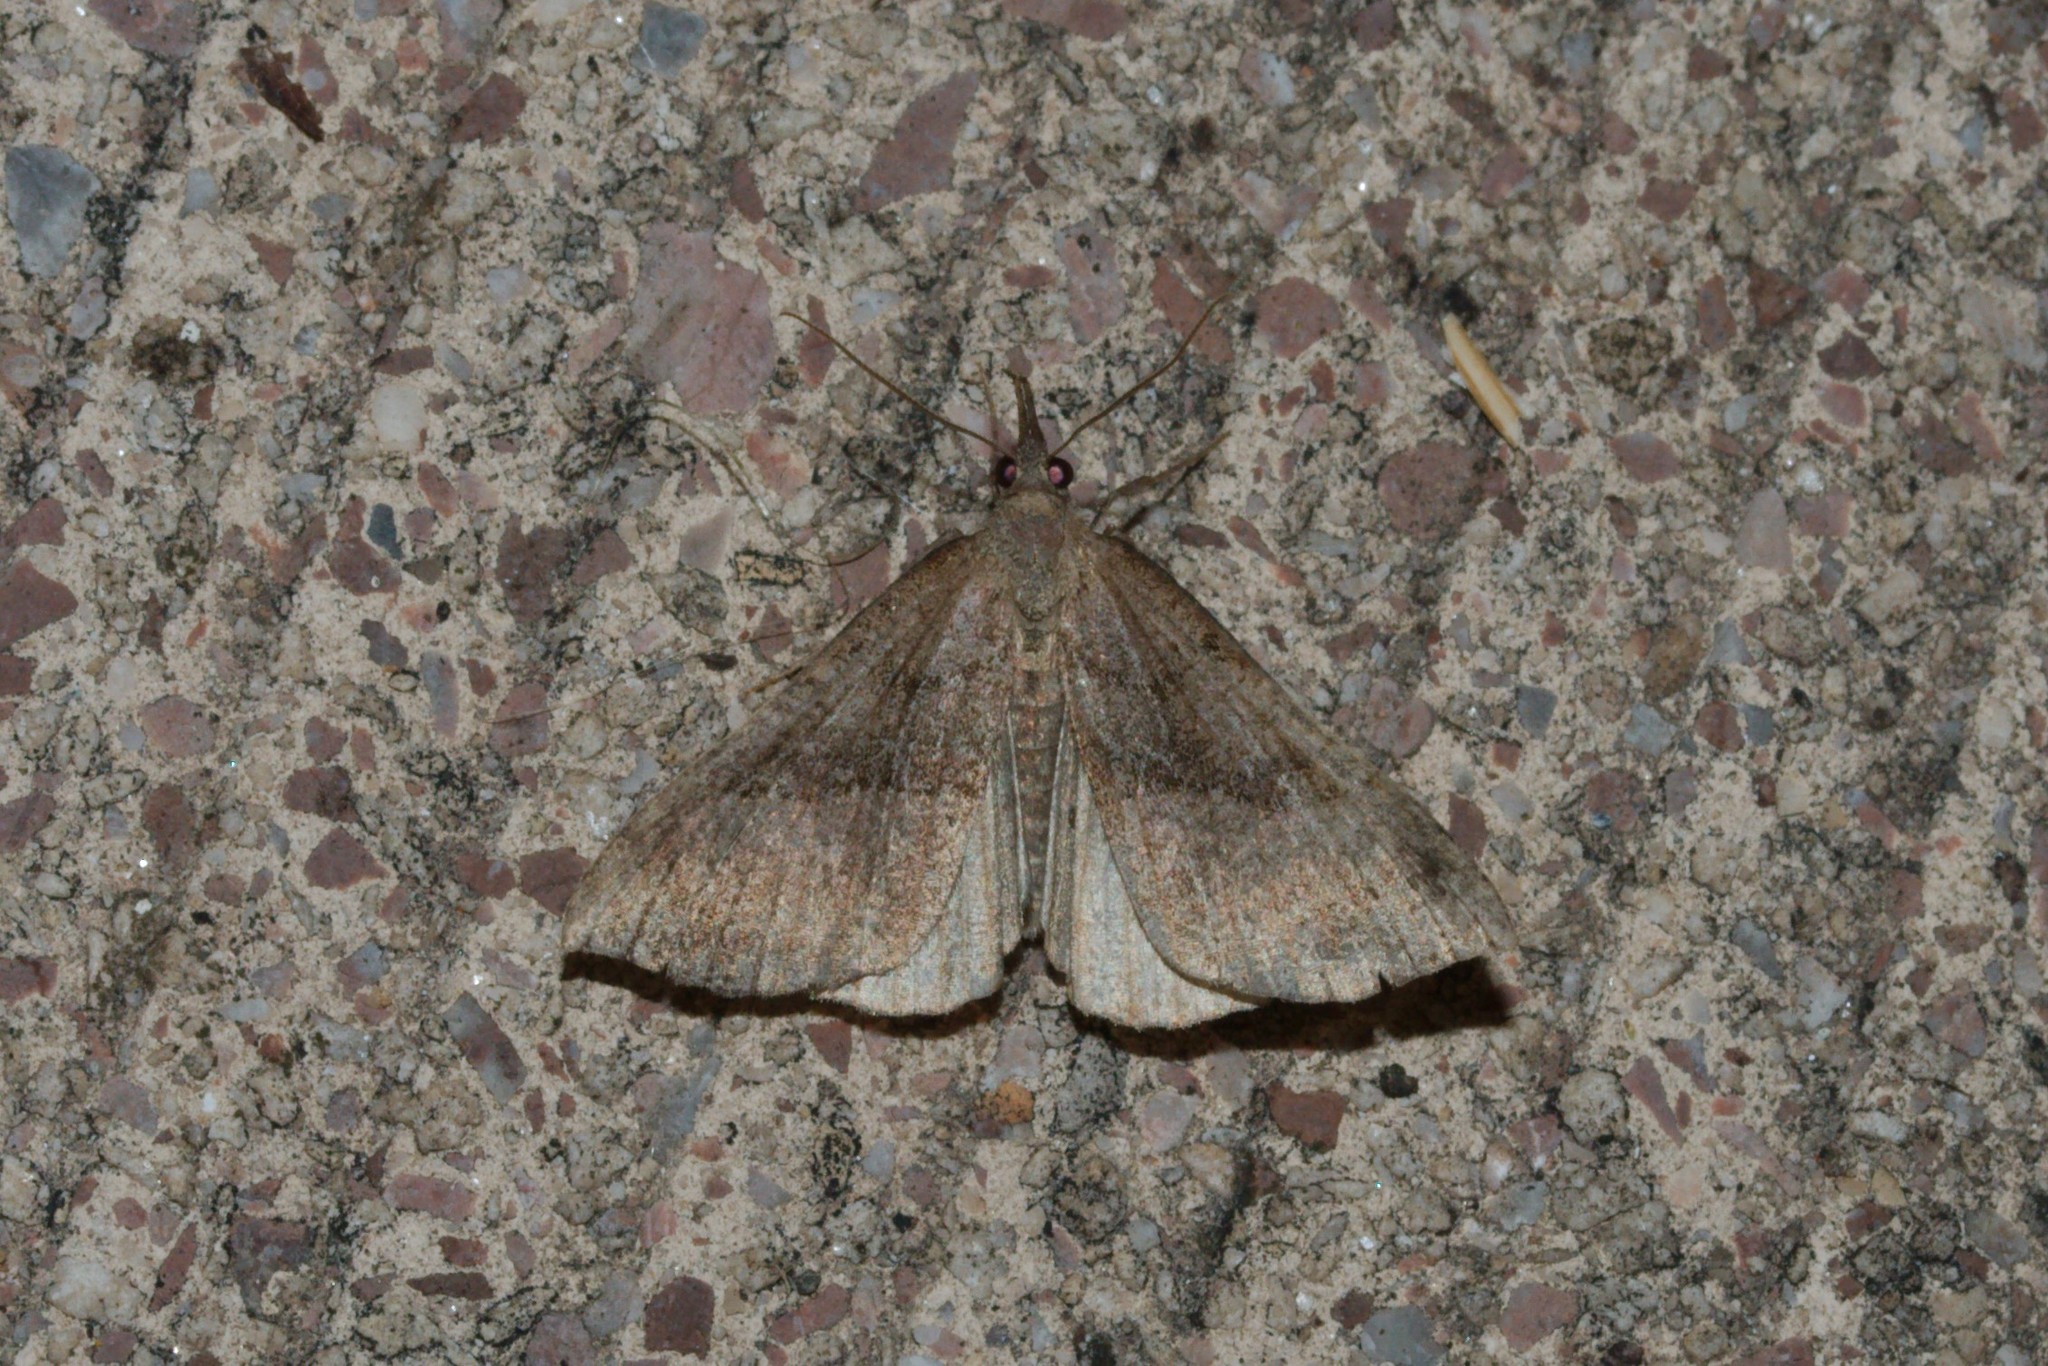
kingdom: Animalia
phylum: Arthropoda
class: Insecta
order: Lepidoptera
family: Erebidae
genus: Hypena
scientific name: Hypena proboscidalis
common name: Snout
